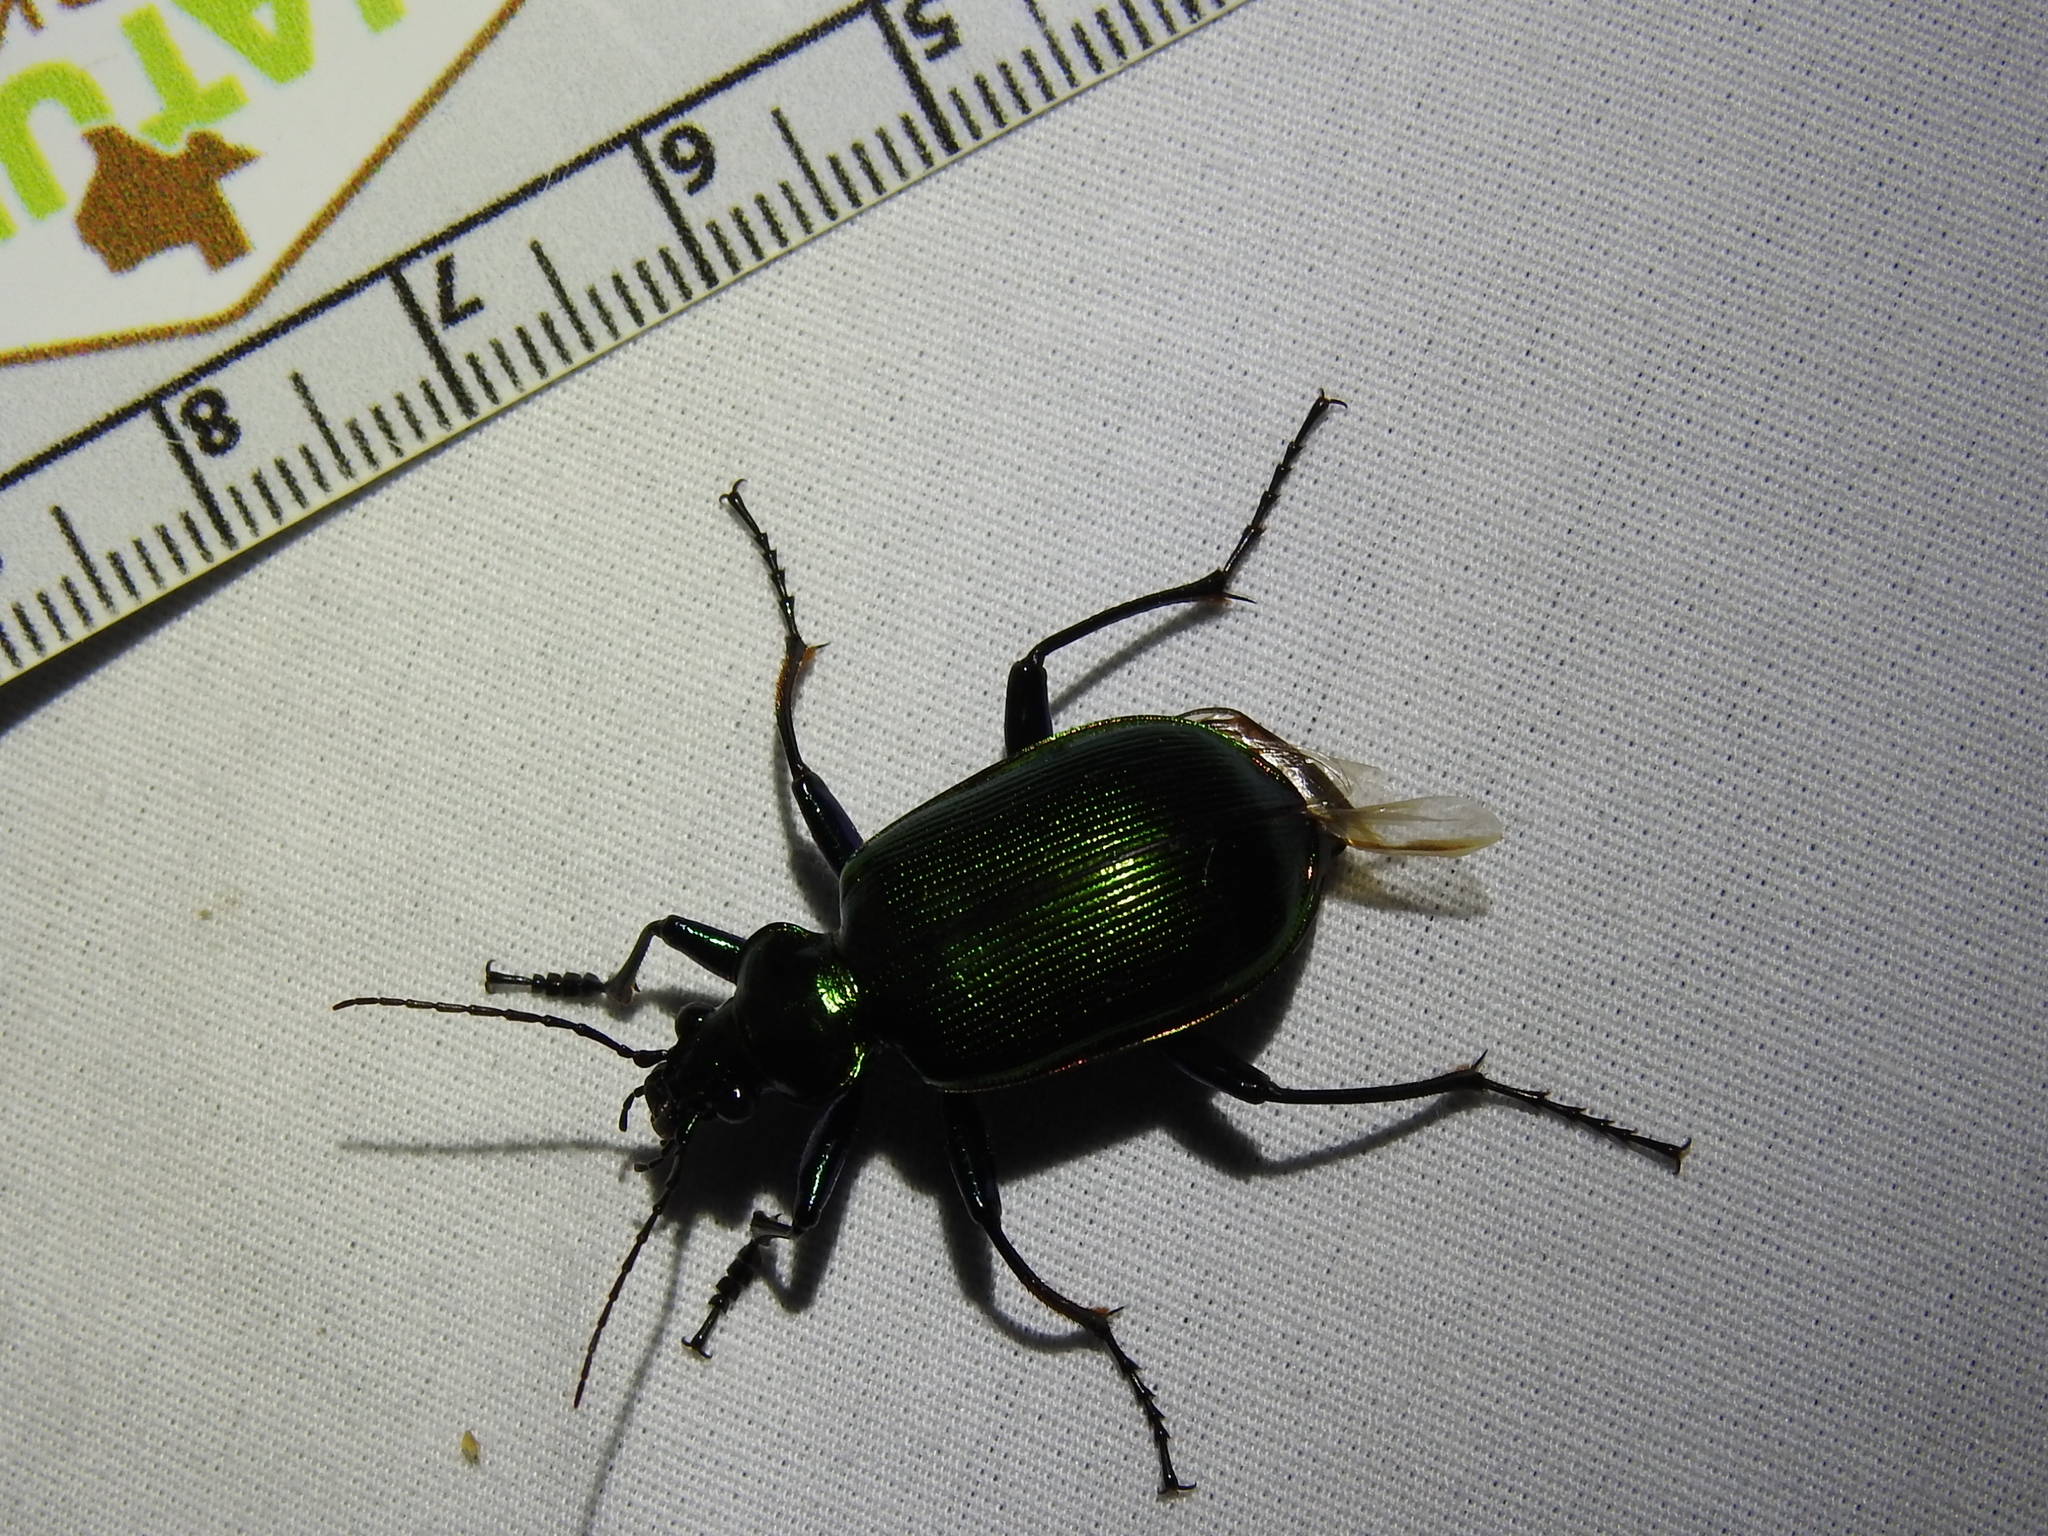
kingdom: Animalia
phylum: Arthropoda
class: Insecta
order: Coleoptera
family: Carabidae
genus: Calosoma
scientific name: Calosoma aurocinctum
